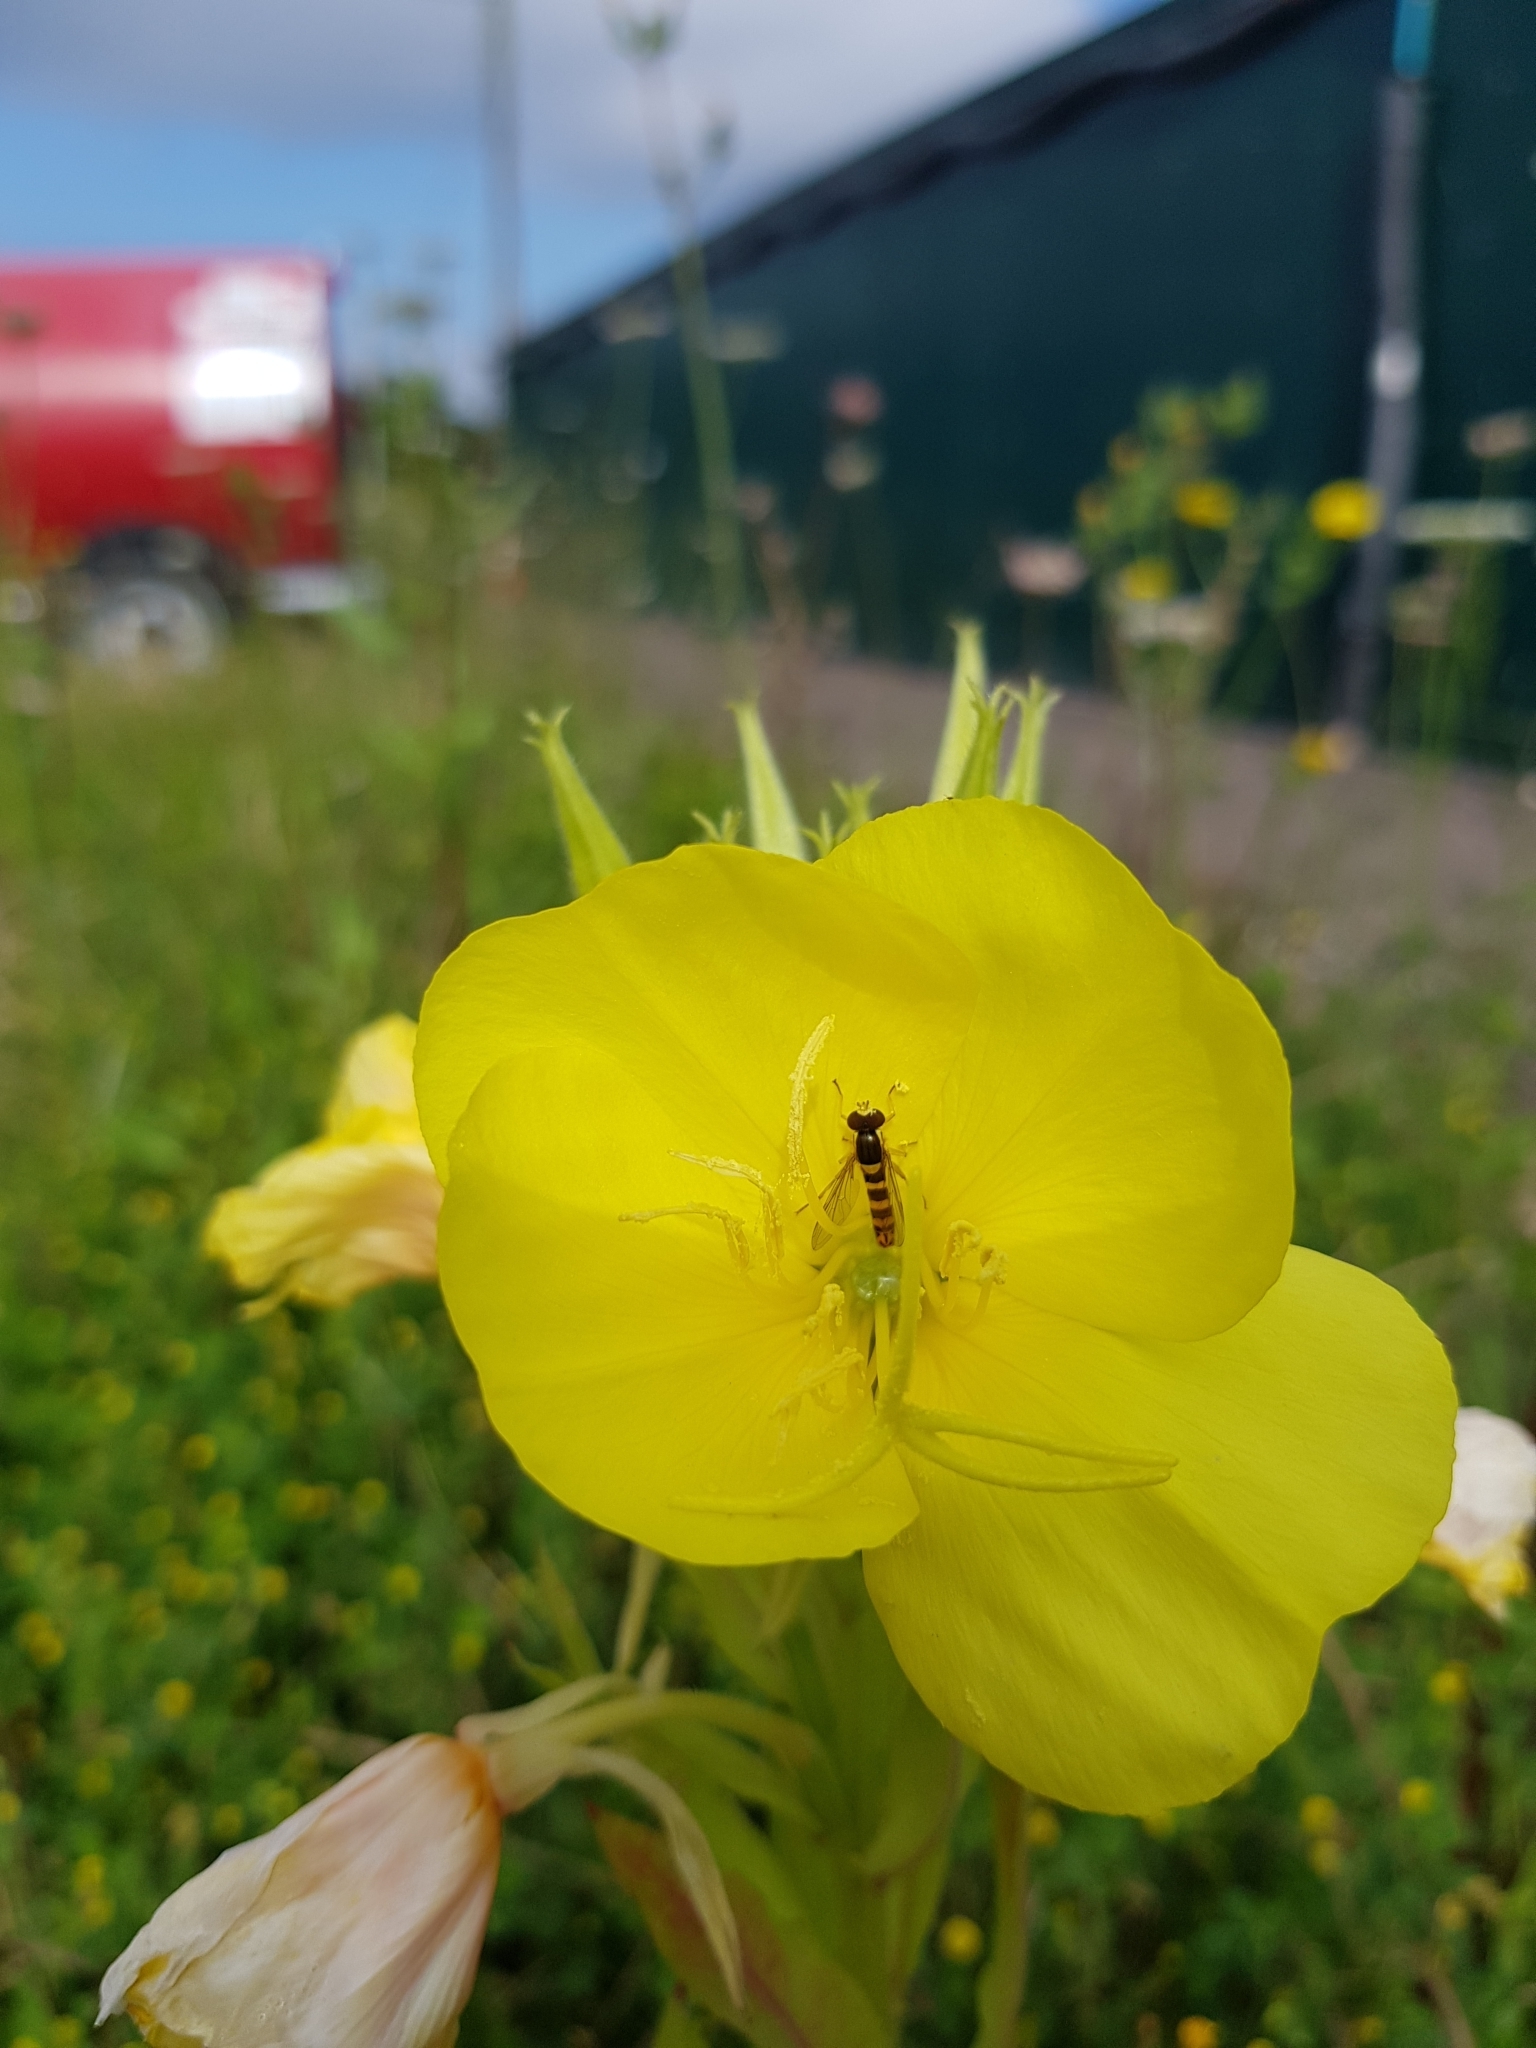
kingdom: Animalia
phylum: Arthropoda
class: Insecta
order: Diptera
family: Syrphidae
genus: Sphaerophoria
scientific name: Sphaerophoria
